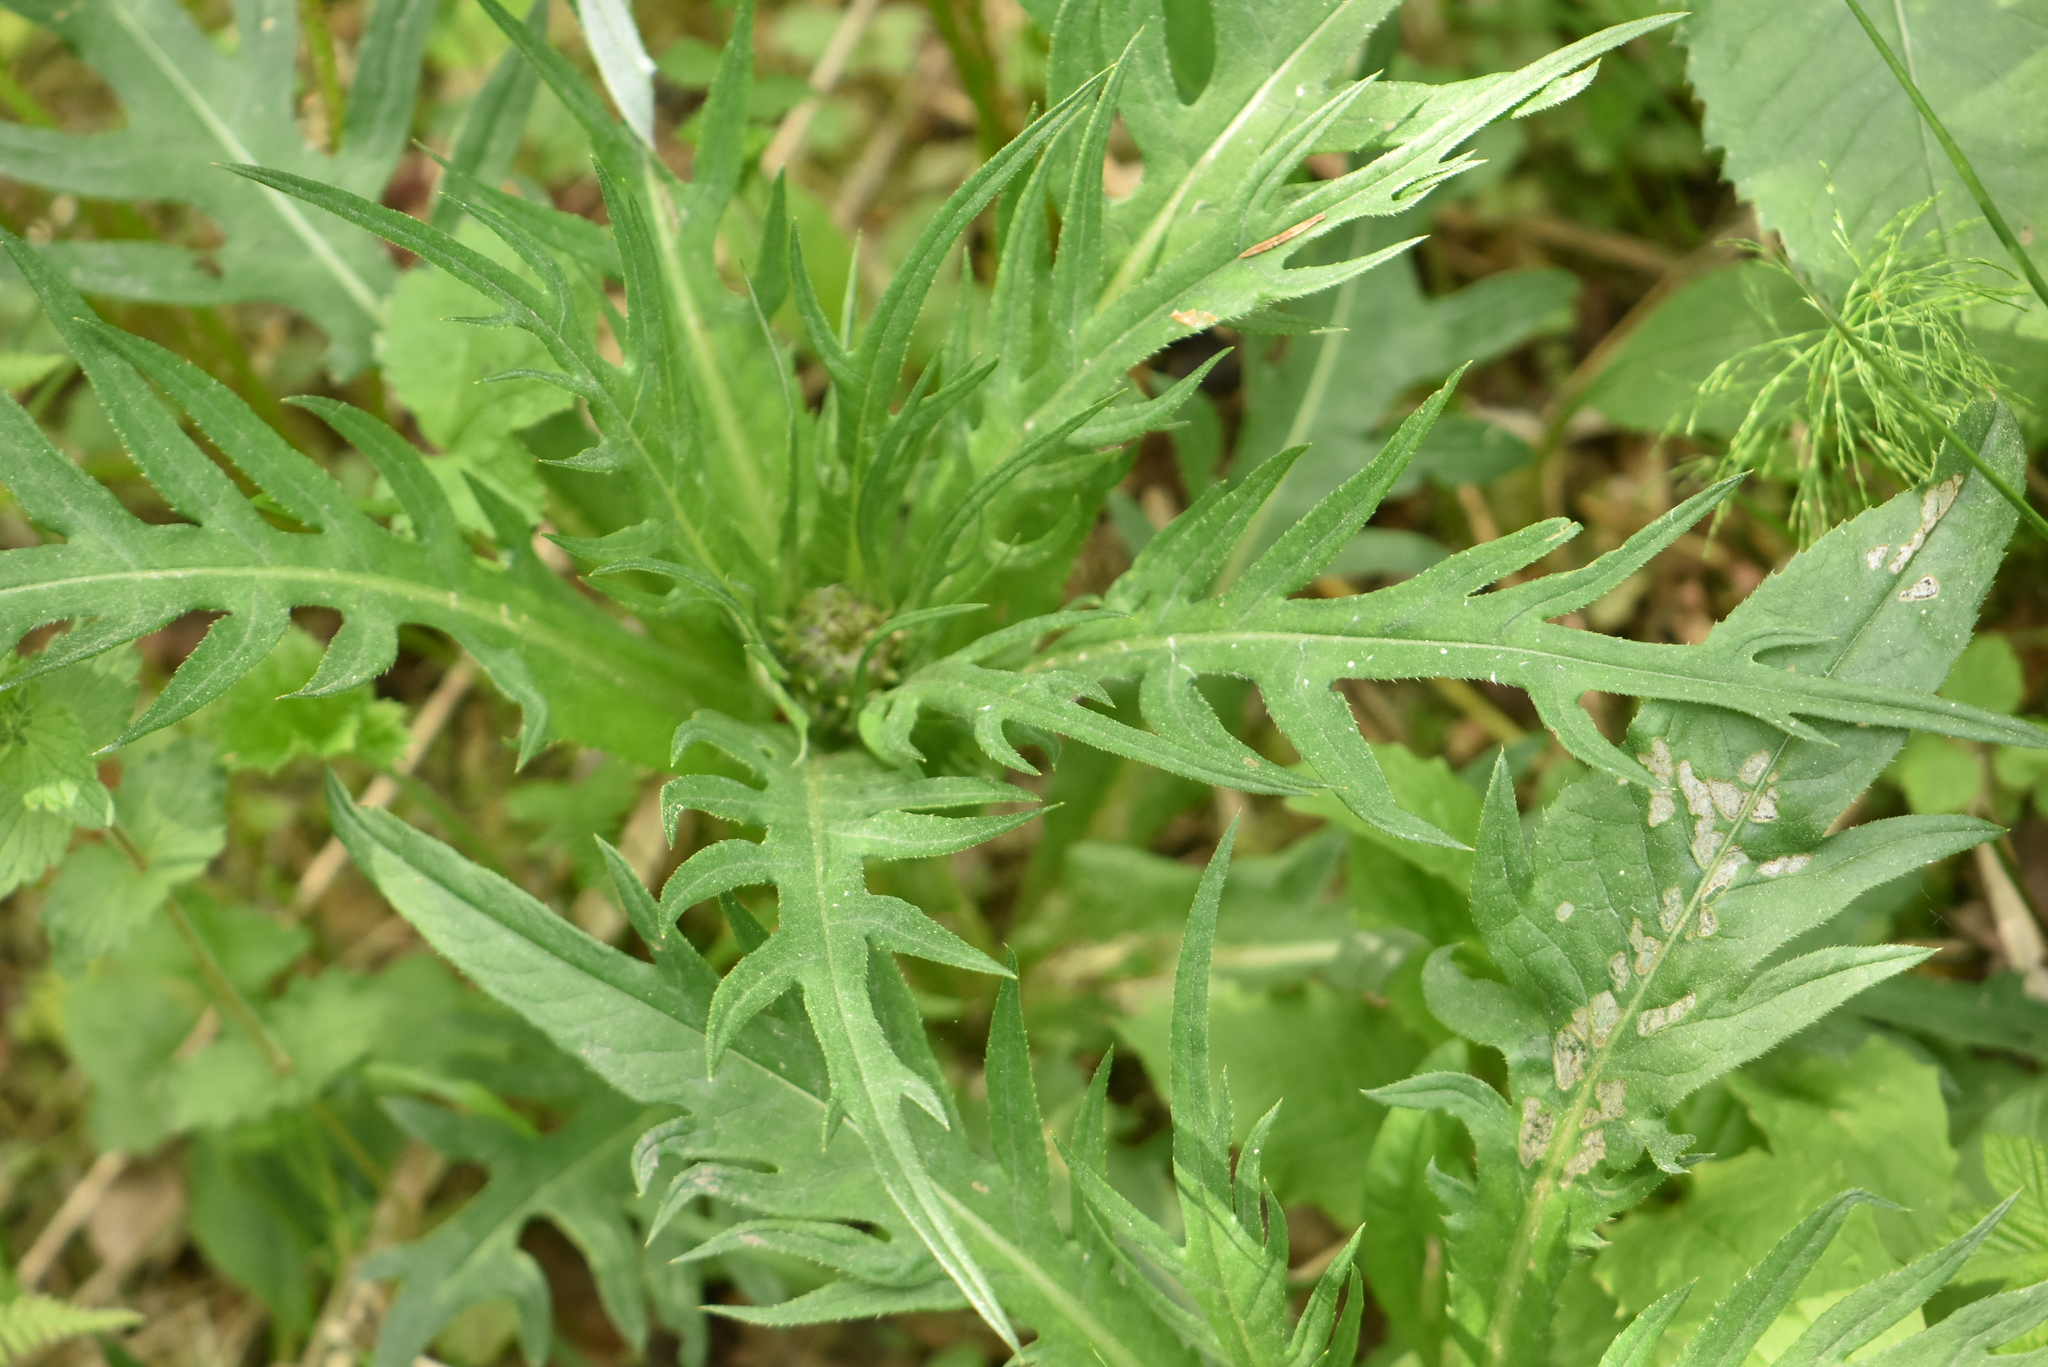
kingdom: Plantae
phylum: Tracheophyta
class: Magnoliopsida
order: Asterales
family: Asteraceae
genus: Cirsium
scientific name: Cirsium heterophyllum
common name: Melancholy thistle
